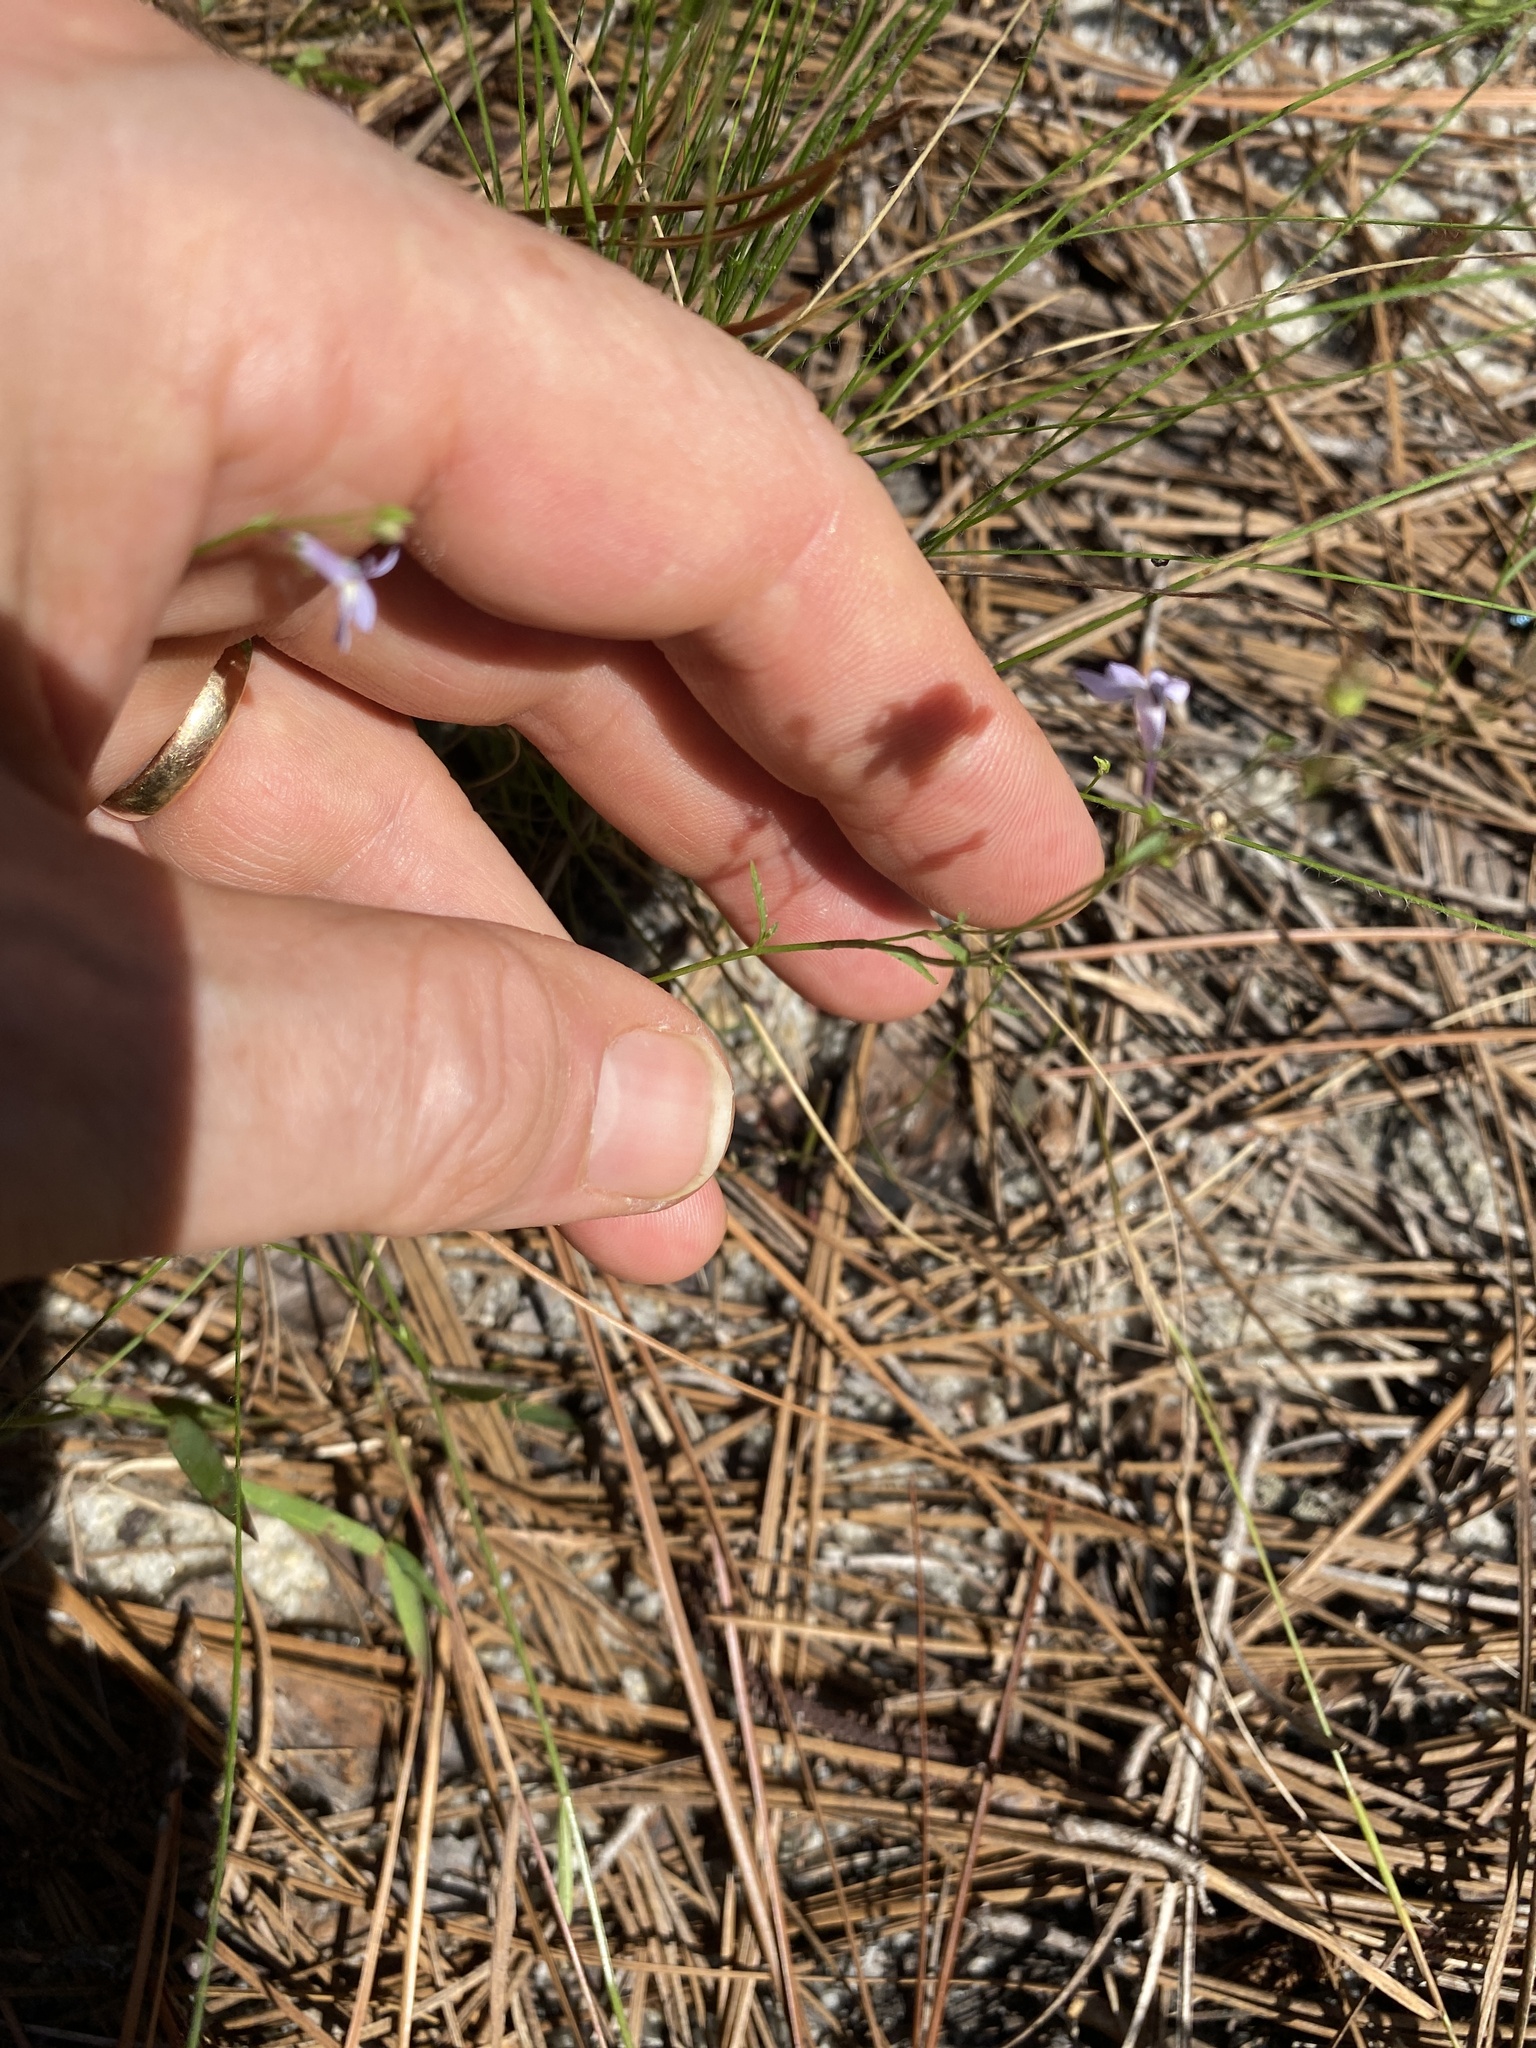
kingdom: Plantae
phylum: Tracheophyta
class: Magnoliopsida
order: Asterales
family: Campanulaceae
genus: Lobelia
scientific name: Lobelia nuttallii
